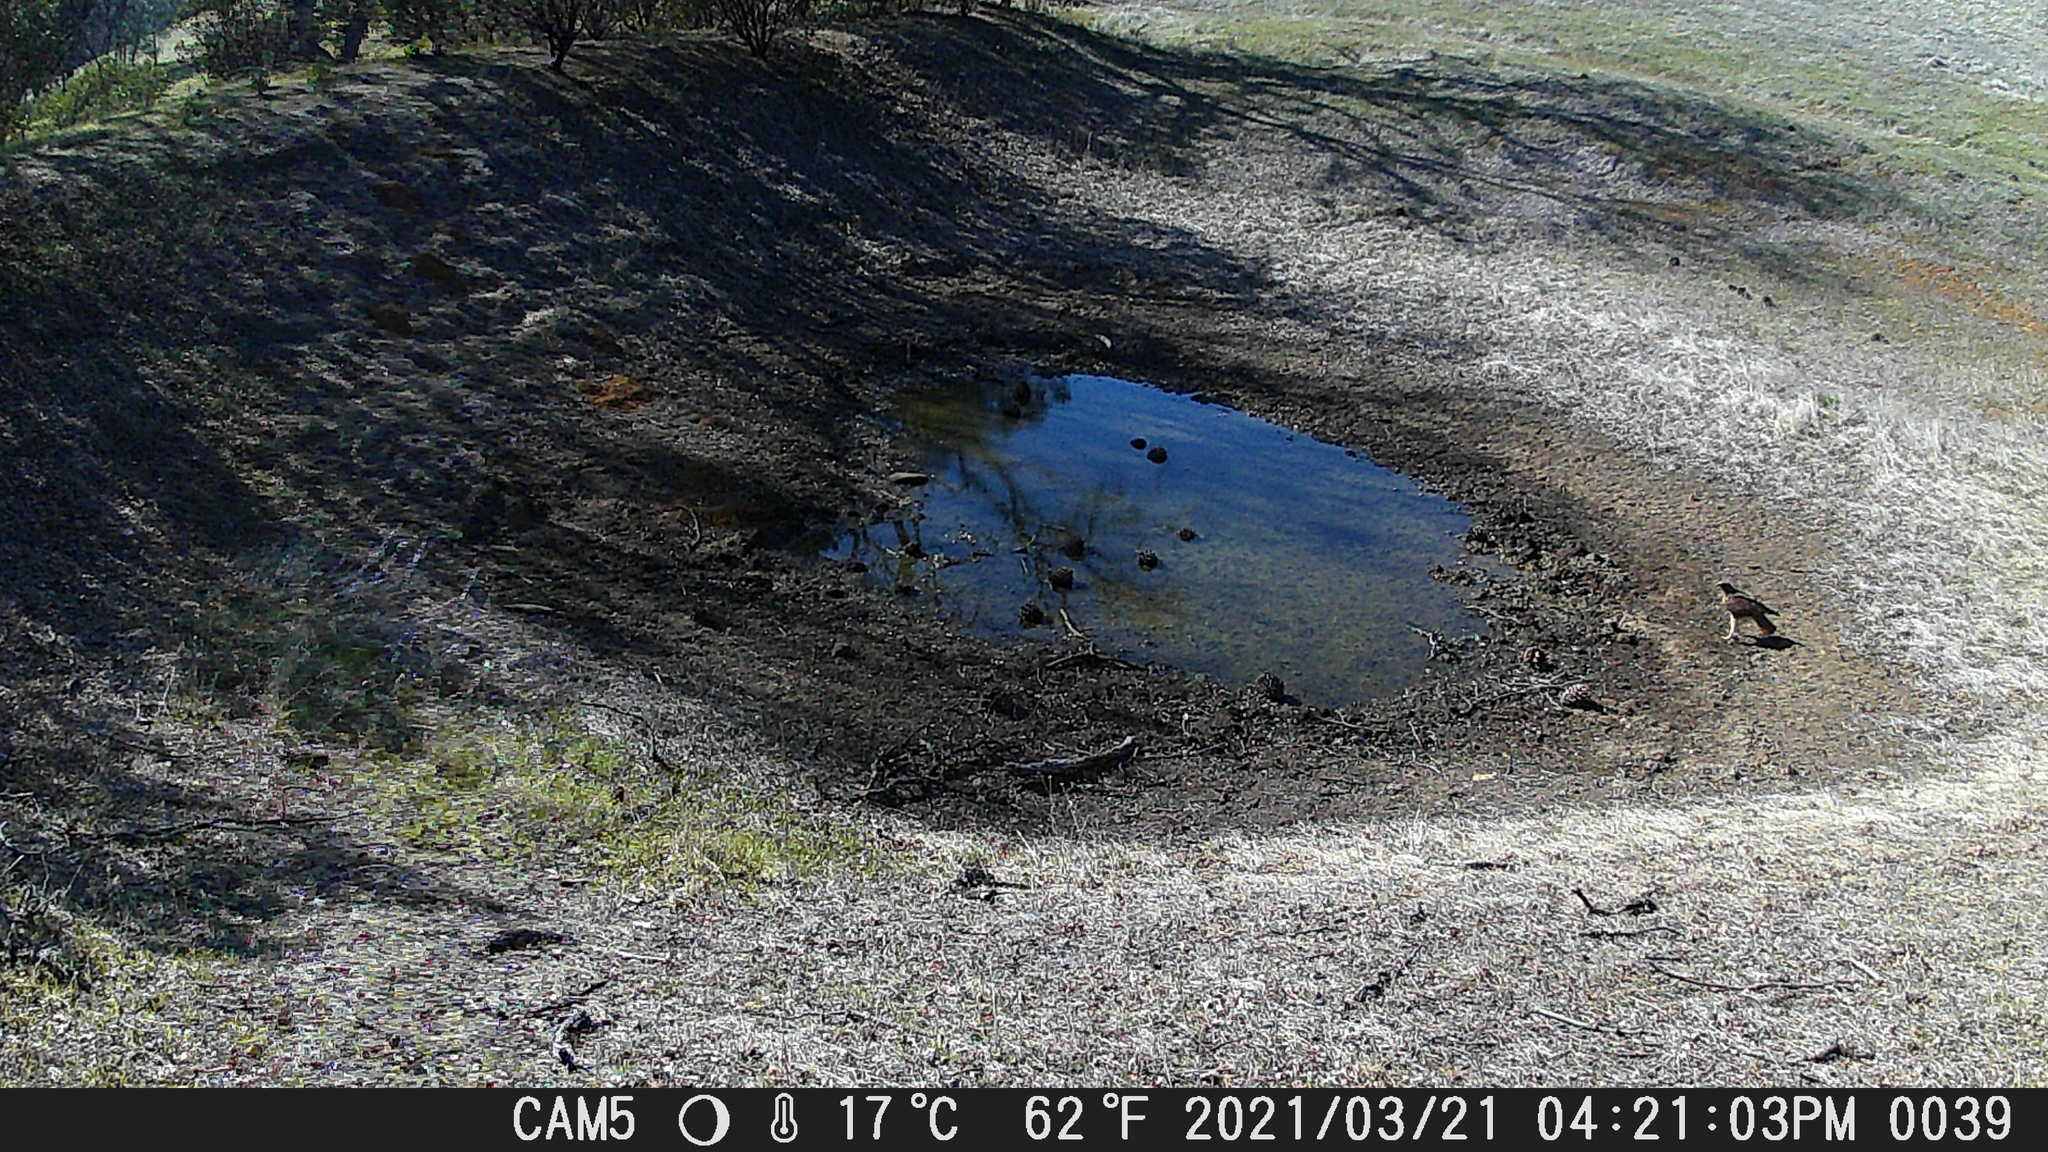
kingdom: Animalia
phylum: Chordata
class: Aves
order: Accipitriformes
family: Accipitridae
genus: Buteo
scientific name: Buteo jamaicensis
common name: Red-tailed hawk
